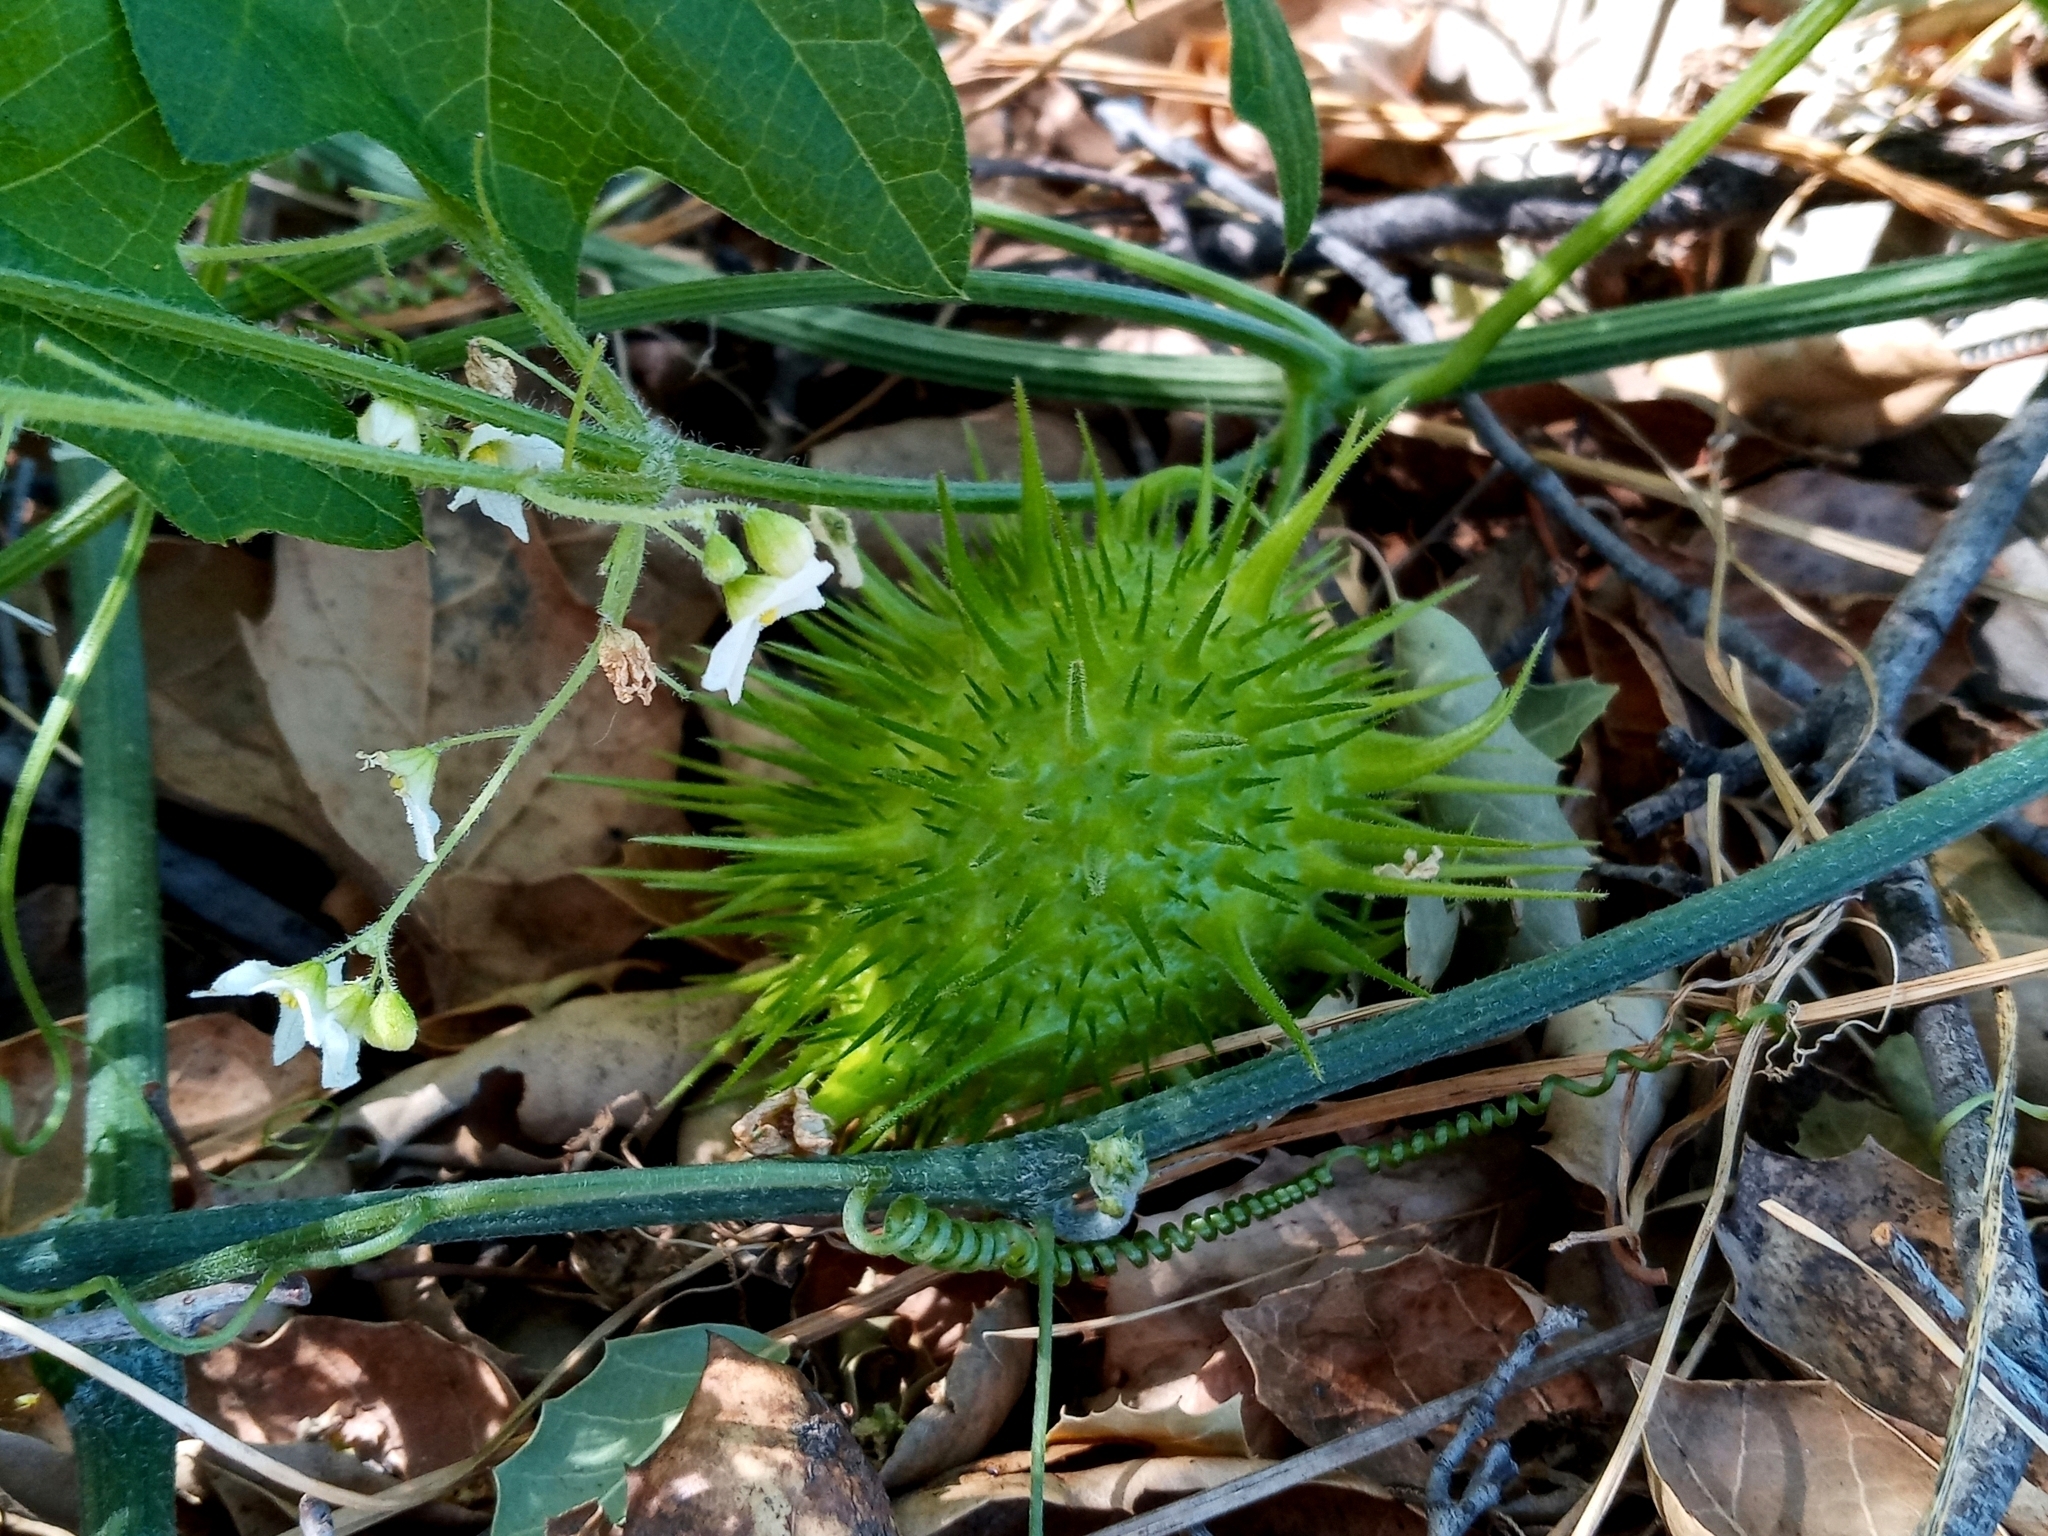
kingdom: Plantae
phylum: Tracheophyta
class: Magnoliopsida
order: Cucurbitales
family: Cucurbitaceae
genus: Marah
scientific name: Marah macrocarpa
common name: Cucamonga manroot
